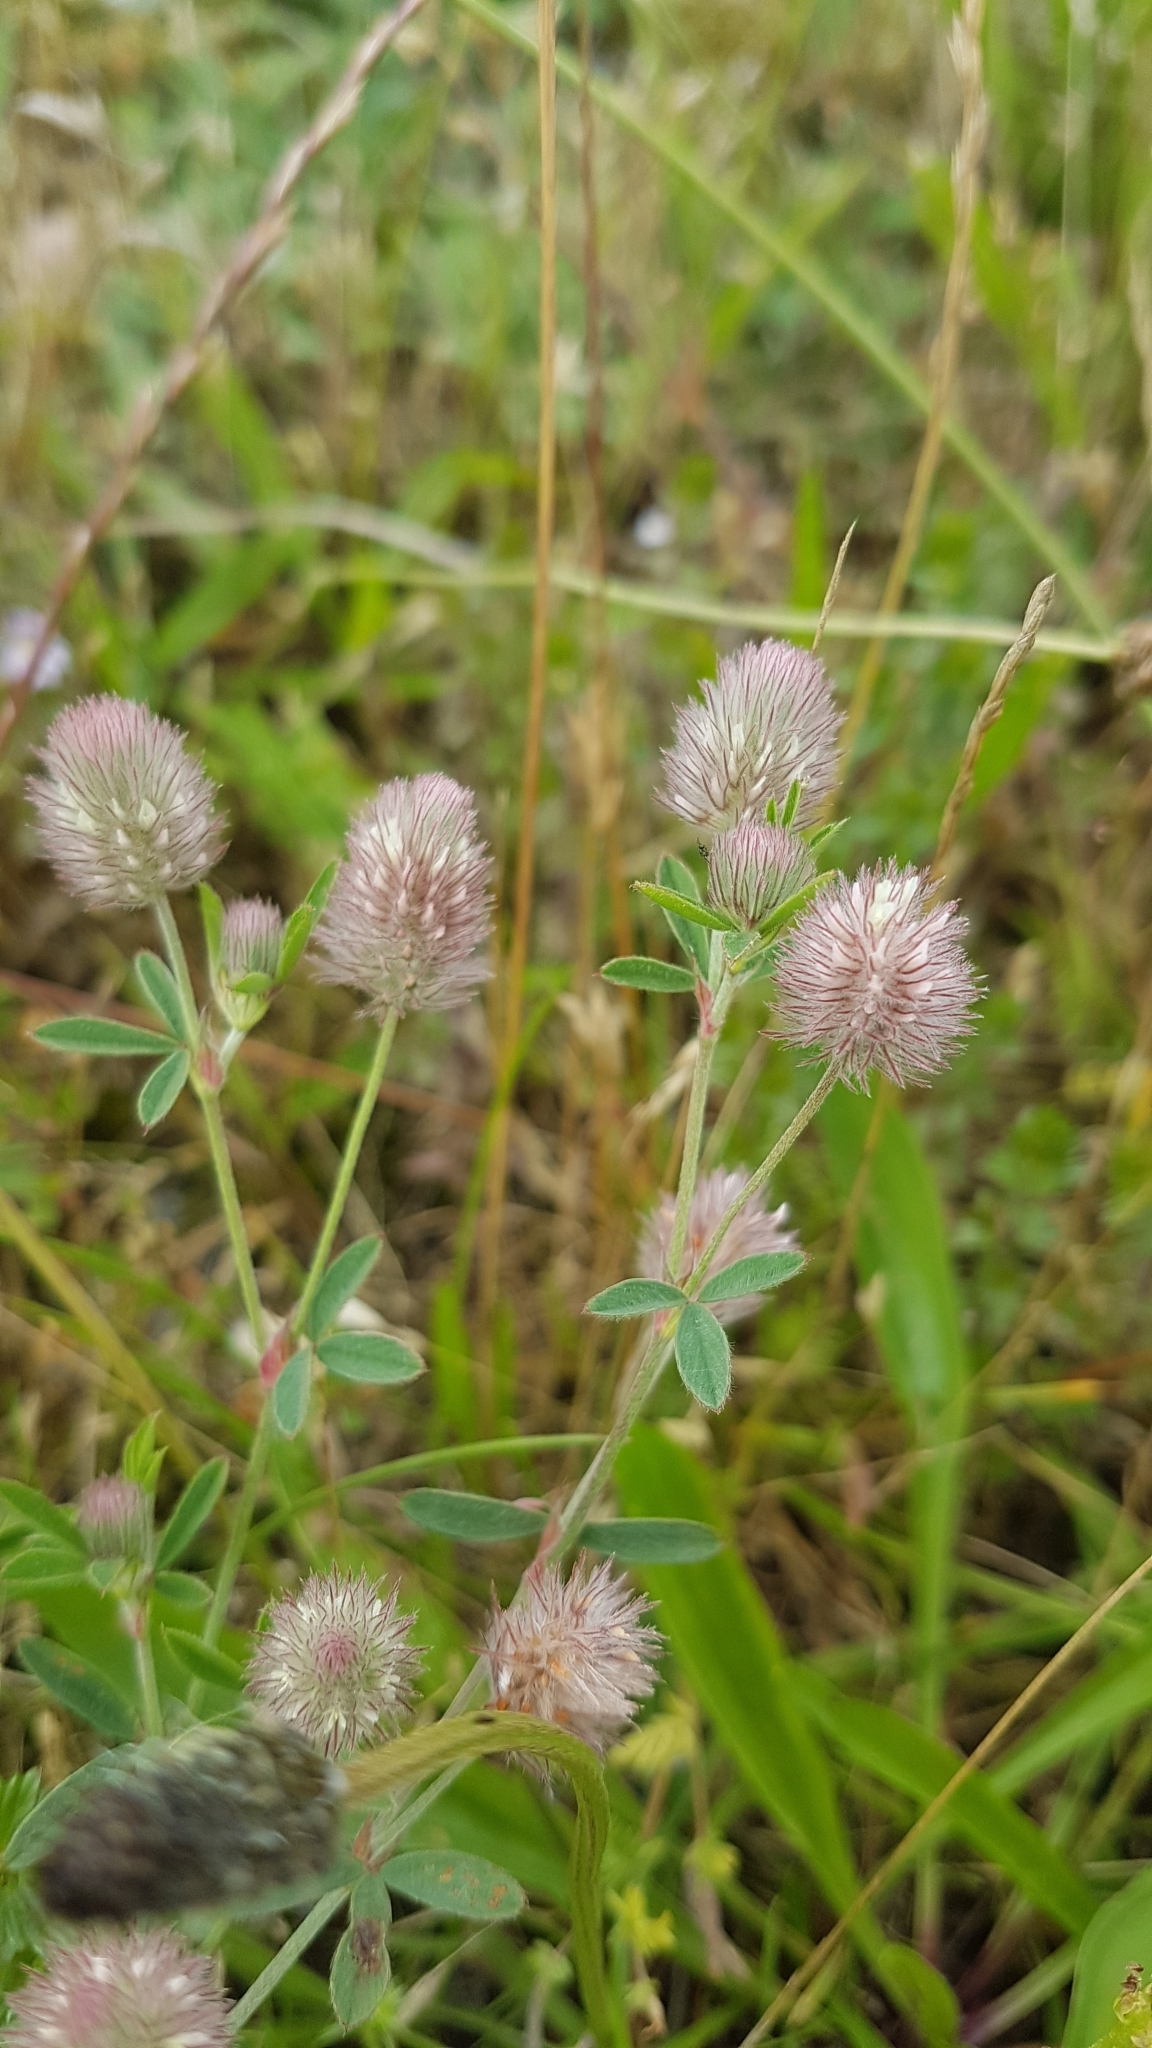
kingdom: Plantae
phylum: Tracheophyta
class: Magnoliopsida
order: Fabales
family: Fabaceae
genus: Trifolium
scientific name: Trifolium arvense
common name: Hare's-foot clover
